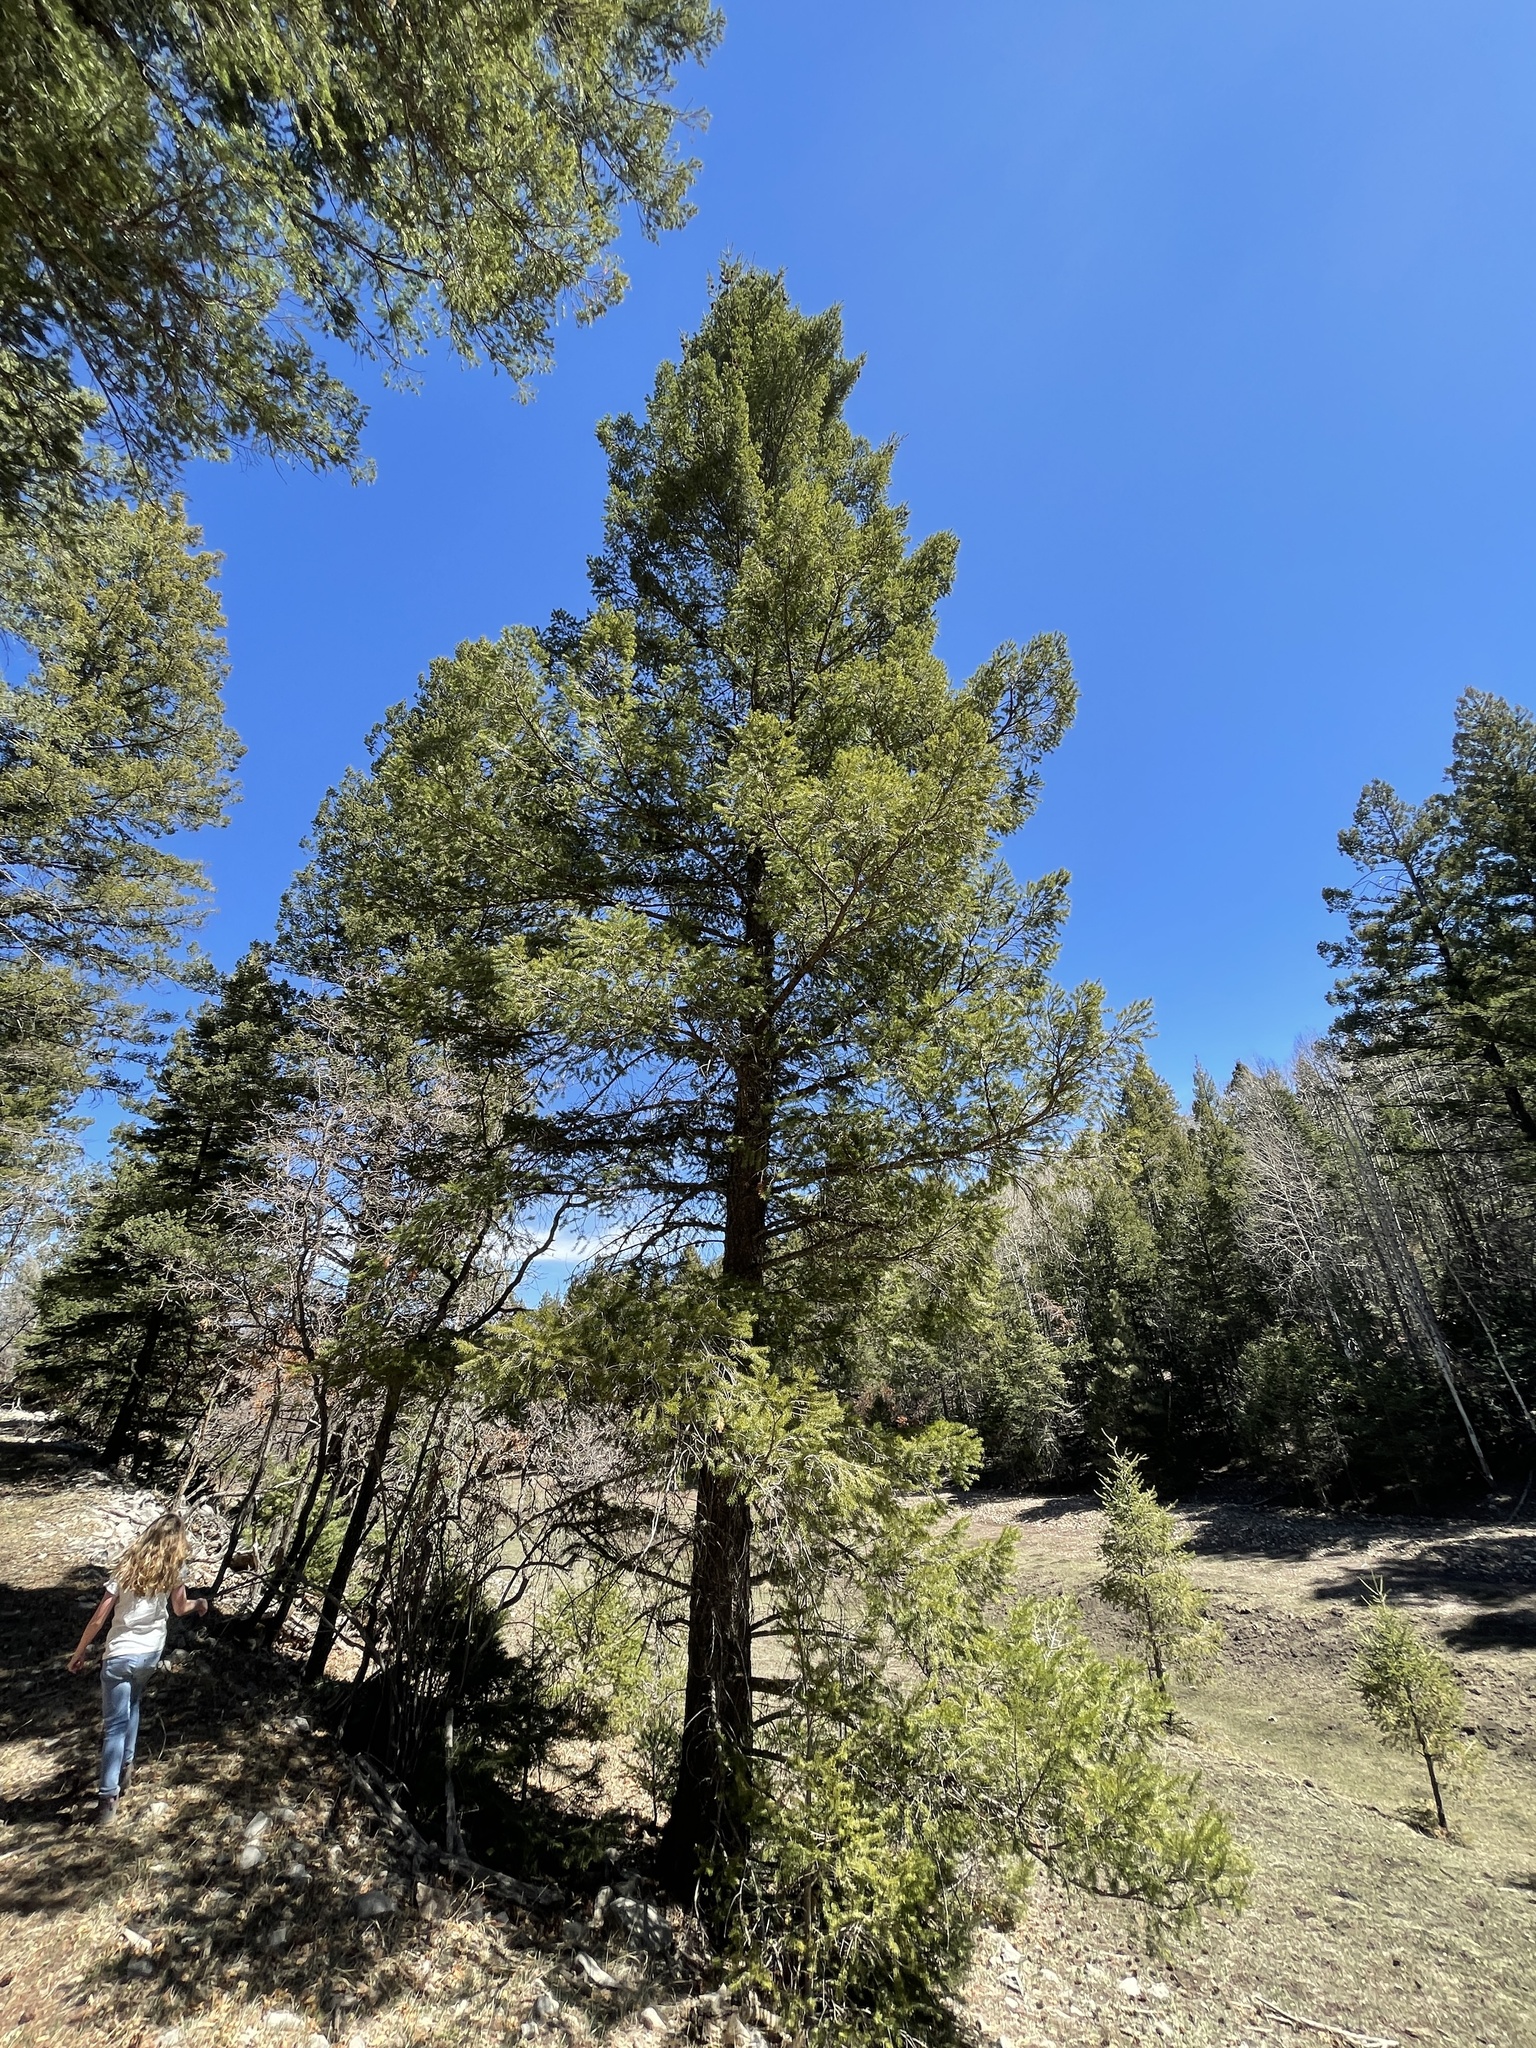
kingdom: Plantae
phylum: Tracheophyta
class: Pinopsida
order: Pinales
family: Pinaceae
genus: Pseudotsuga
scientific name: Pseudotsuga menziesii
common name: Douglas fir
